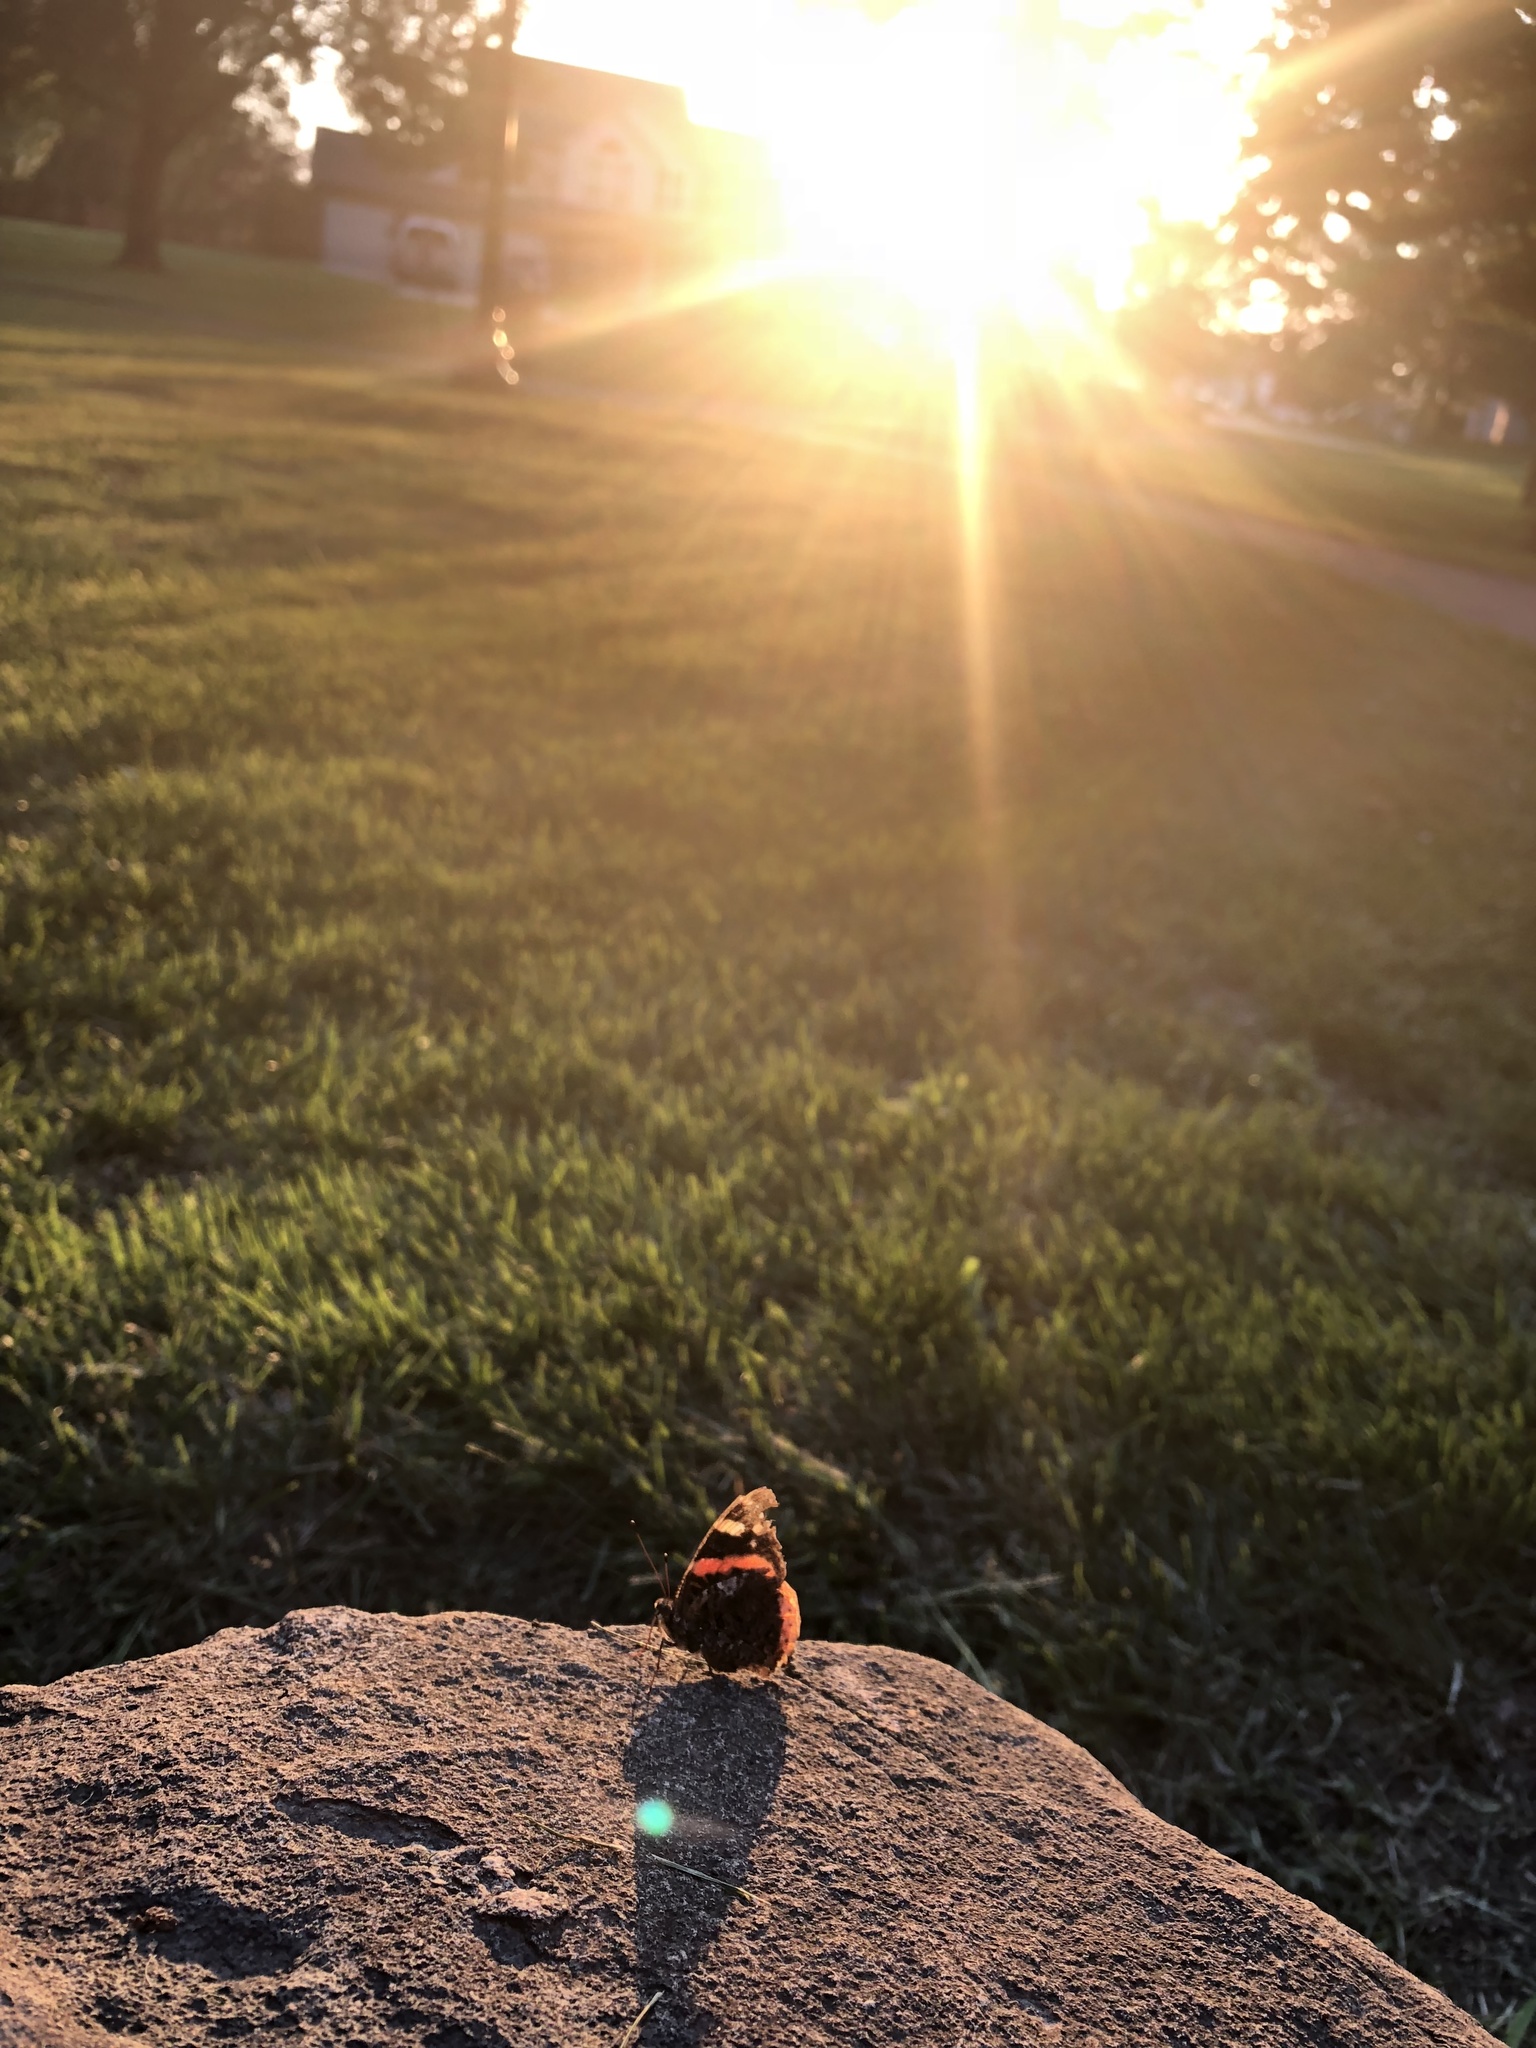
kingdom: Animalia
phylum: Arthropoda
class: Insecta
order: Lepidoptera
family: Nymphalidae
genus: Vanessa
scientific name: Vanessa atalanta
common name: Red admiral
